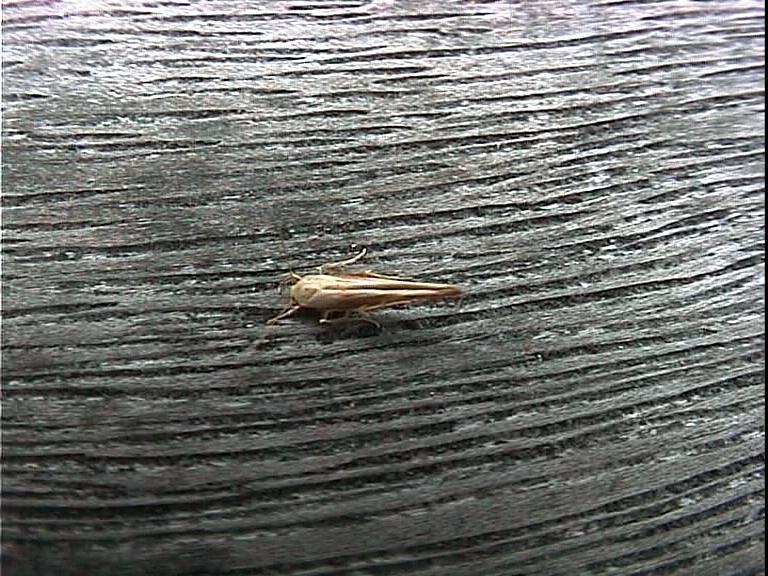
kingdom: Animalia
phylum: Arthropoda
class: Insecta
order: Lepidoptera
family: Stathmopodidae
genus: Stathmopoda
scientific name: Stathmopoda aposema
